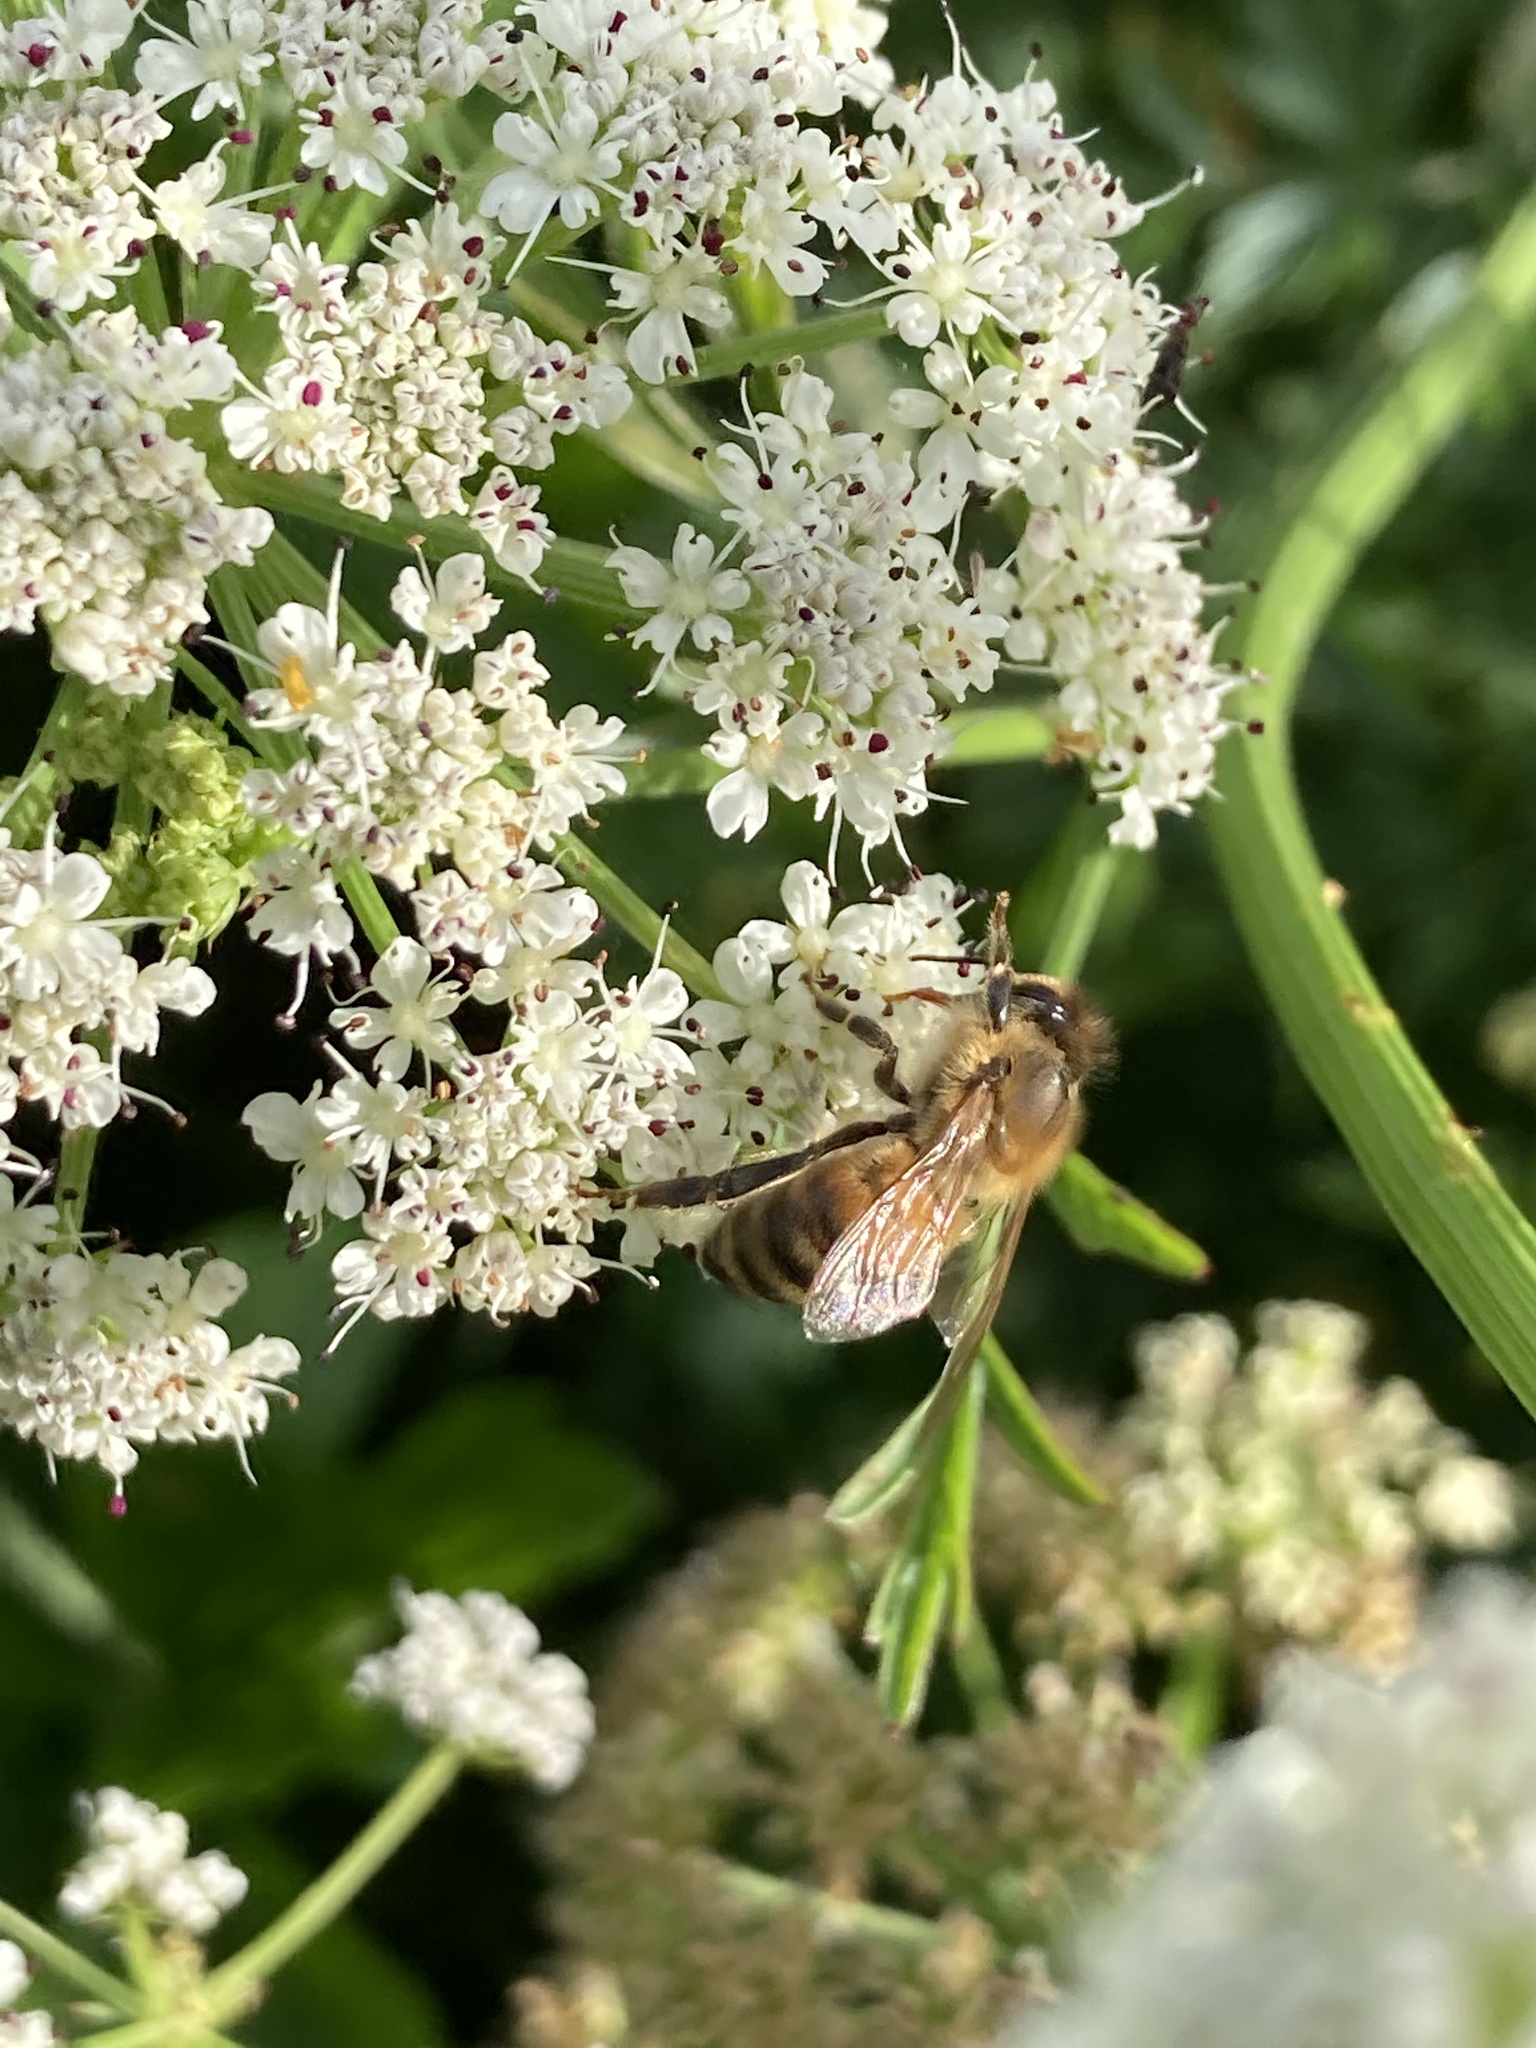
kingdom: Animalia
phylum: Arthropoda
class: Insecta
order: Hymenoptera
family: Apidae
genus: Apis
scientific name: Apis mellifera
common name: Honey bee
